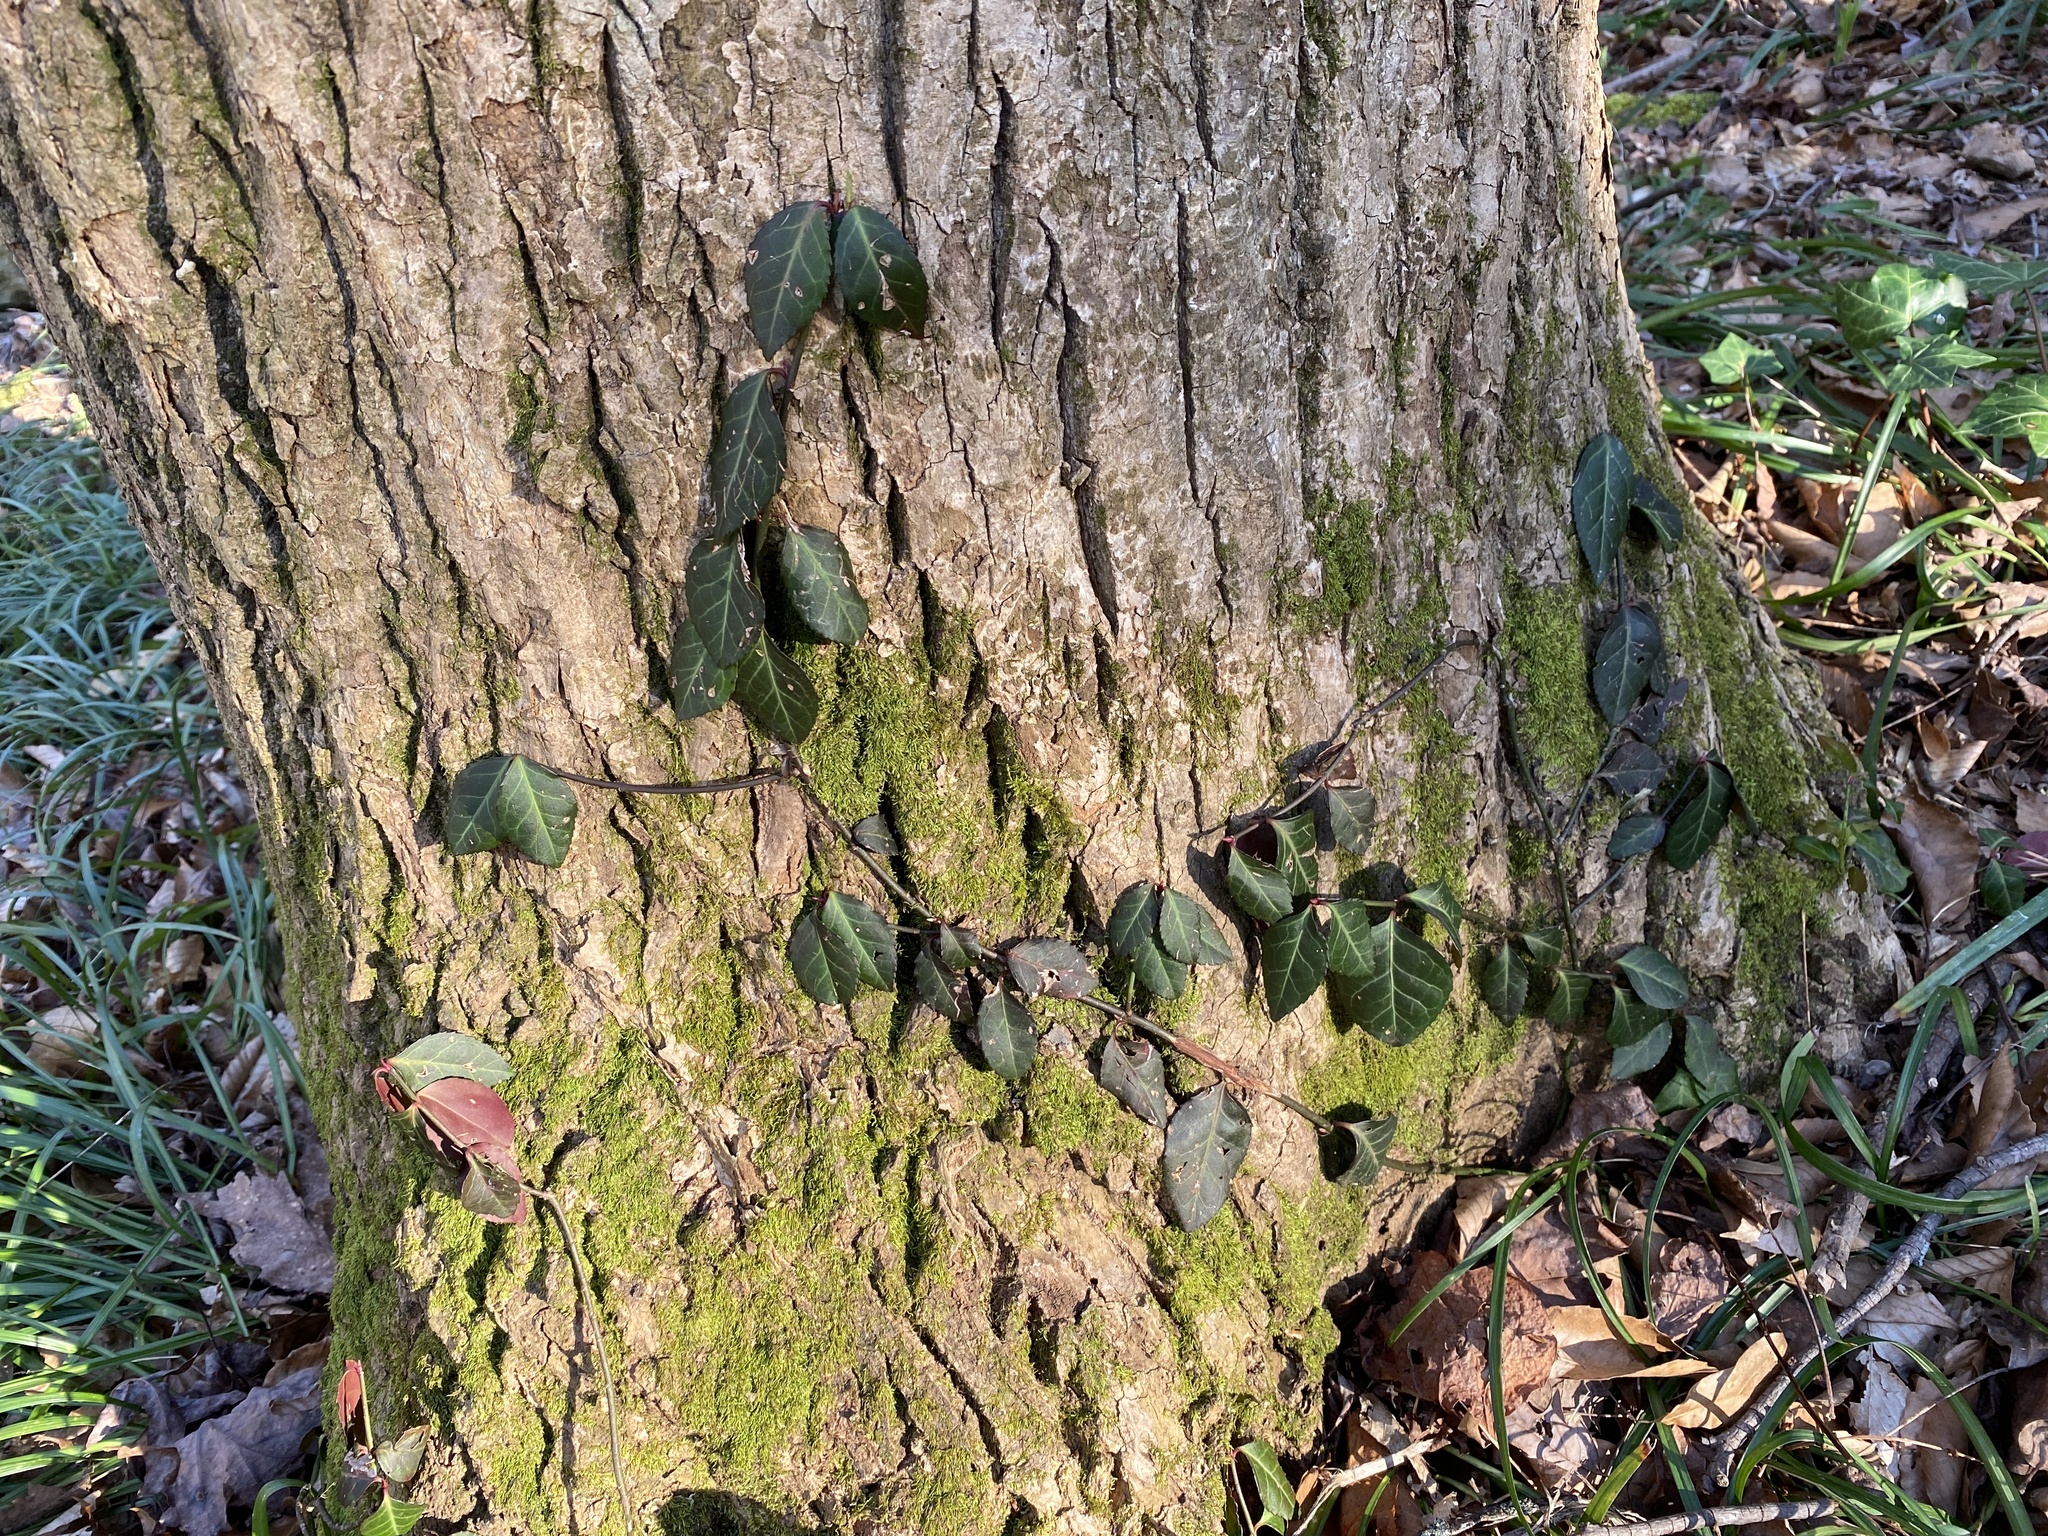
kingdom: Plantae
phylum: Tracheophyta
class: Magnoliopsida
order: Celastrales
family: Celastraceae
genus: Euonymus
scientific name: Euonymus fortunei
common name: Climbing euonymus
